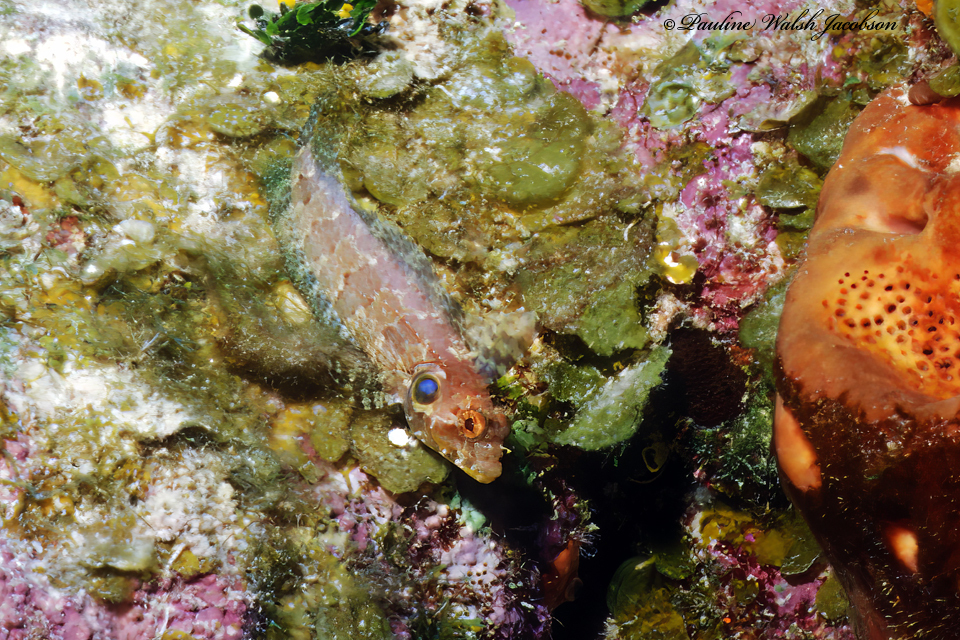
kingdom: Animalia
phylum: Chordata
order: Perciformes
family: Labrisomidae
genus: Gobioclinus
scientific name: Gobioclinus filamentosus
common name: Quillfin blenny
